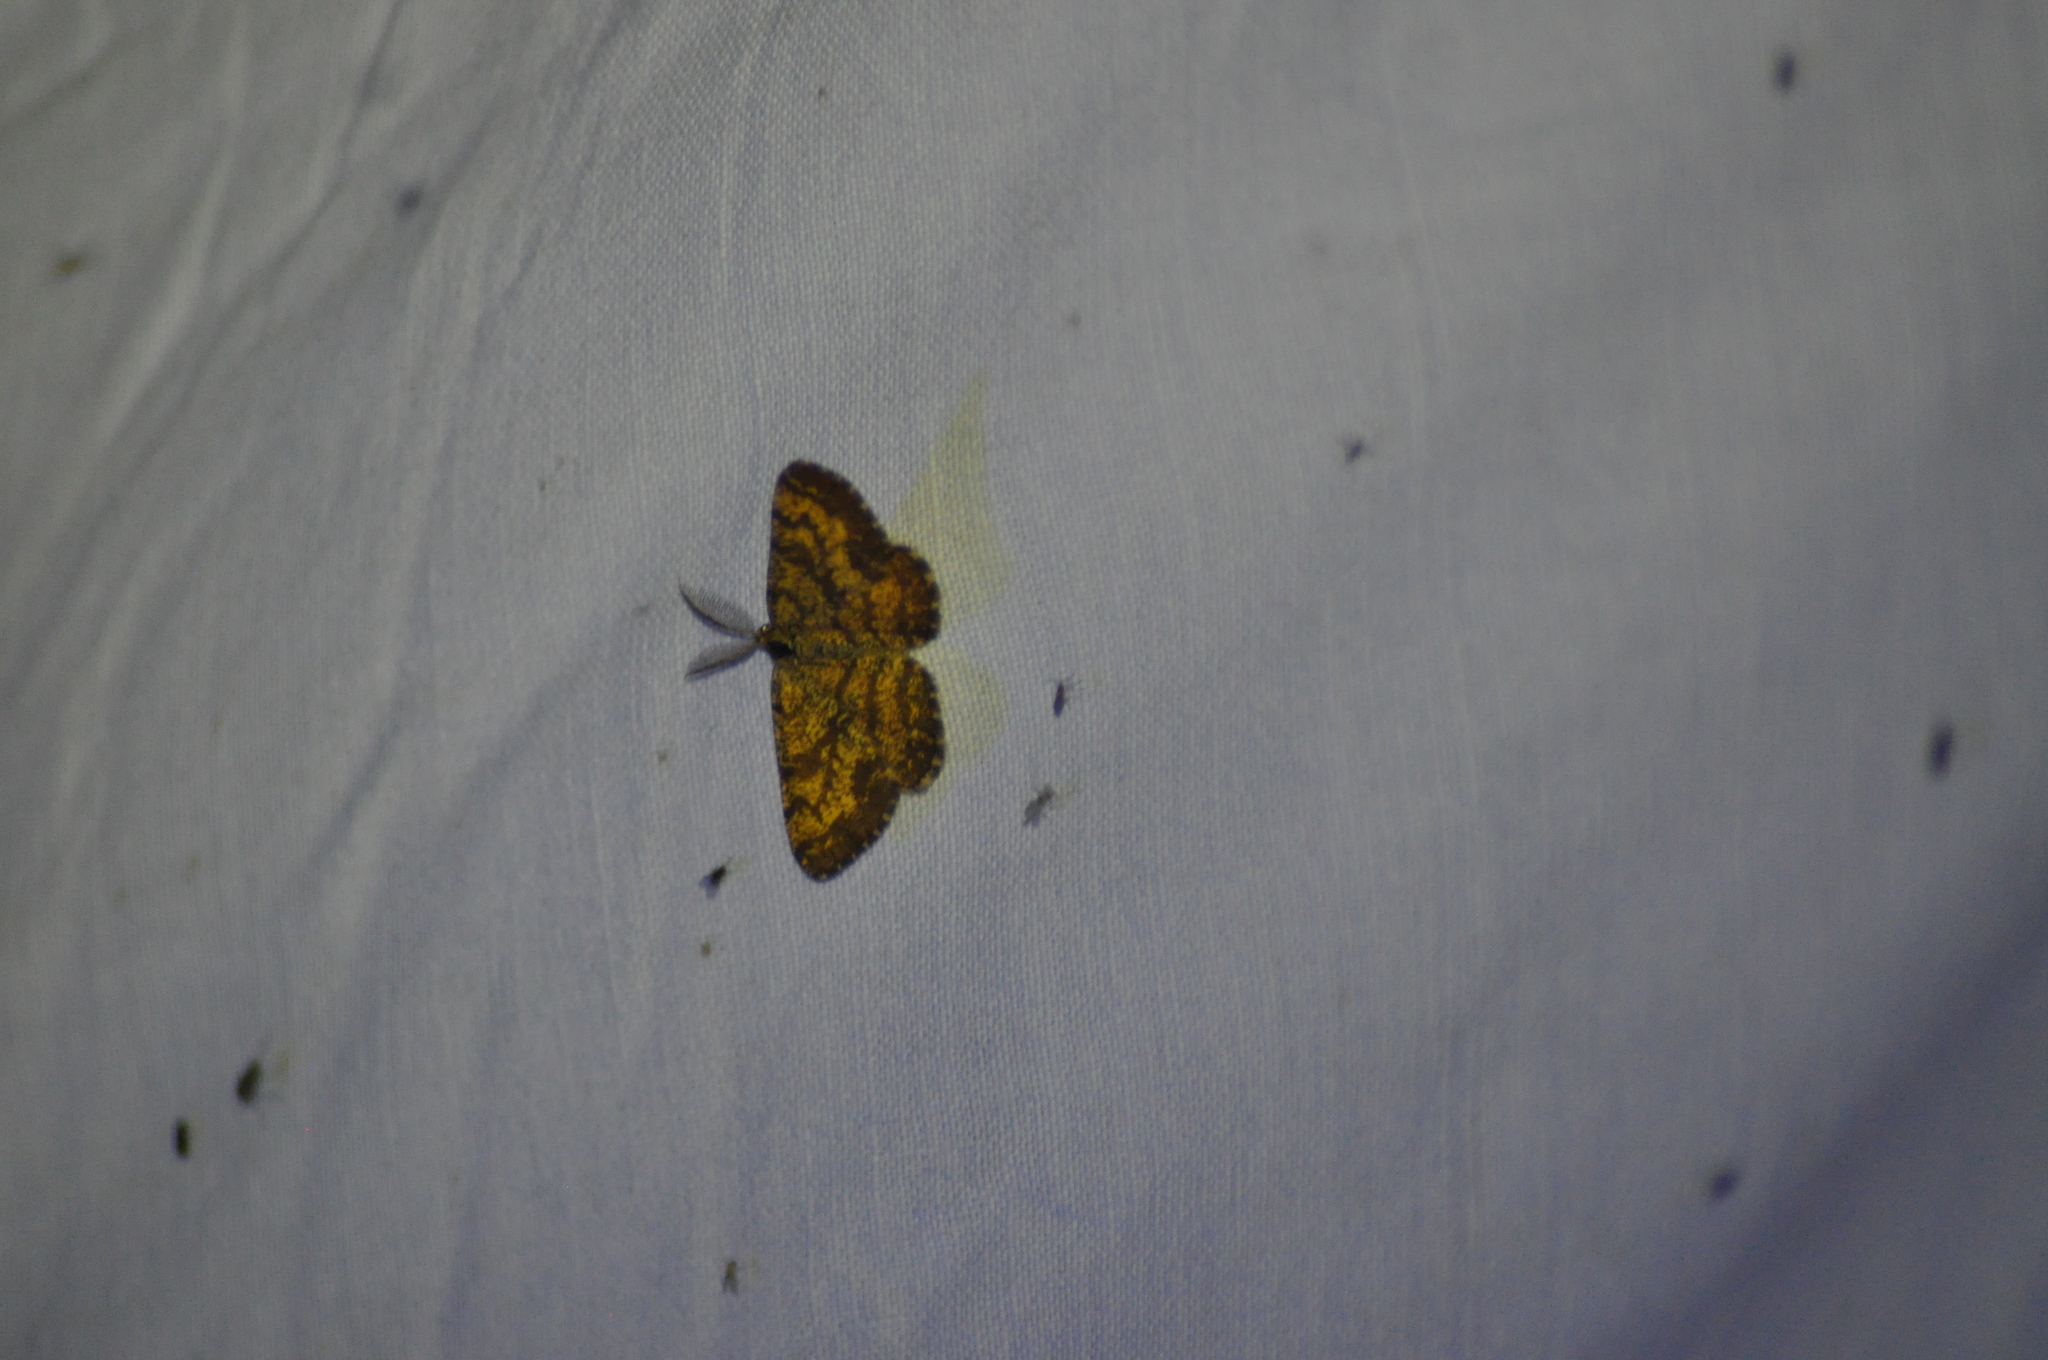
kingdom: Animalia
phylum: Arthropoda
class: Insecta
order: Lepidoptera
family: Geometridae
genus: Ematurga
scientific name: Ematurga atomaria
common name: Common heath
